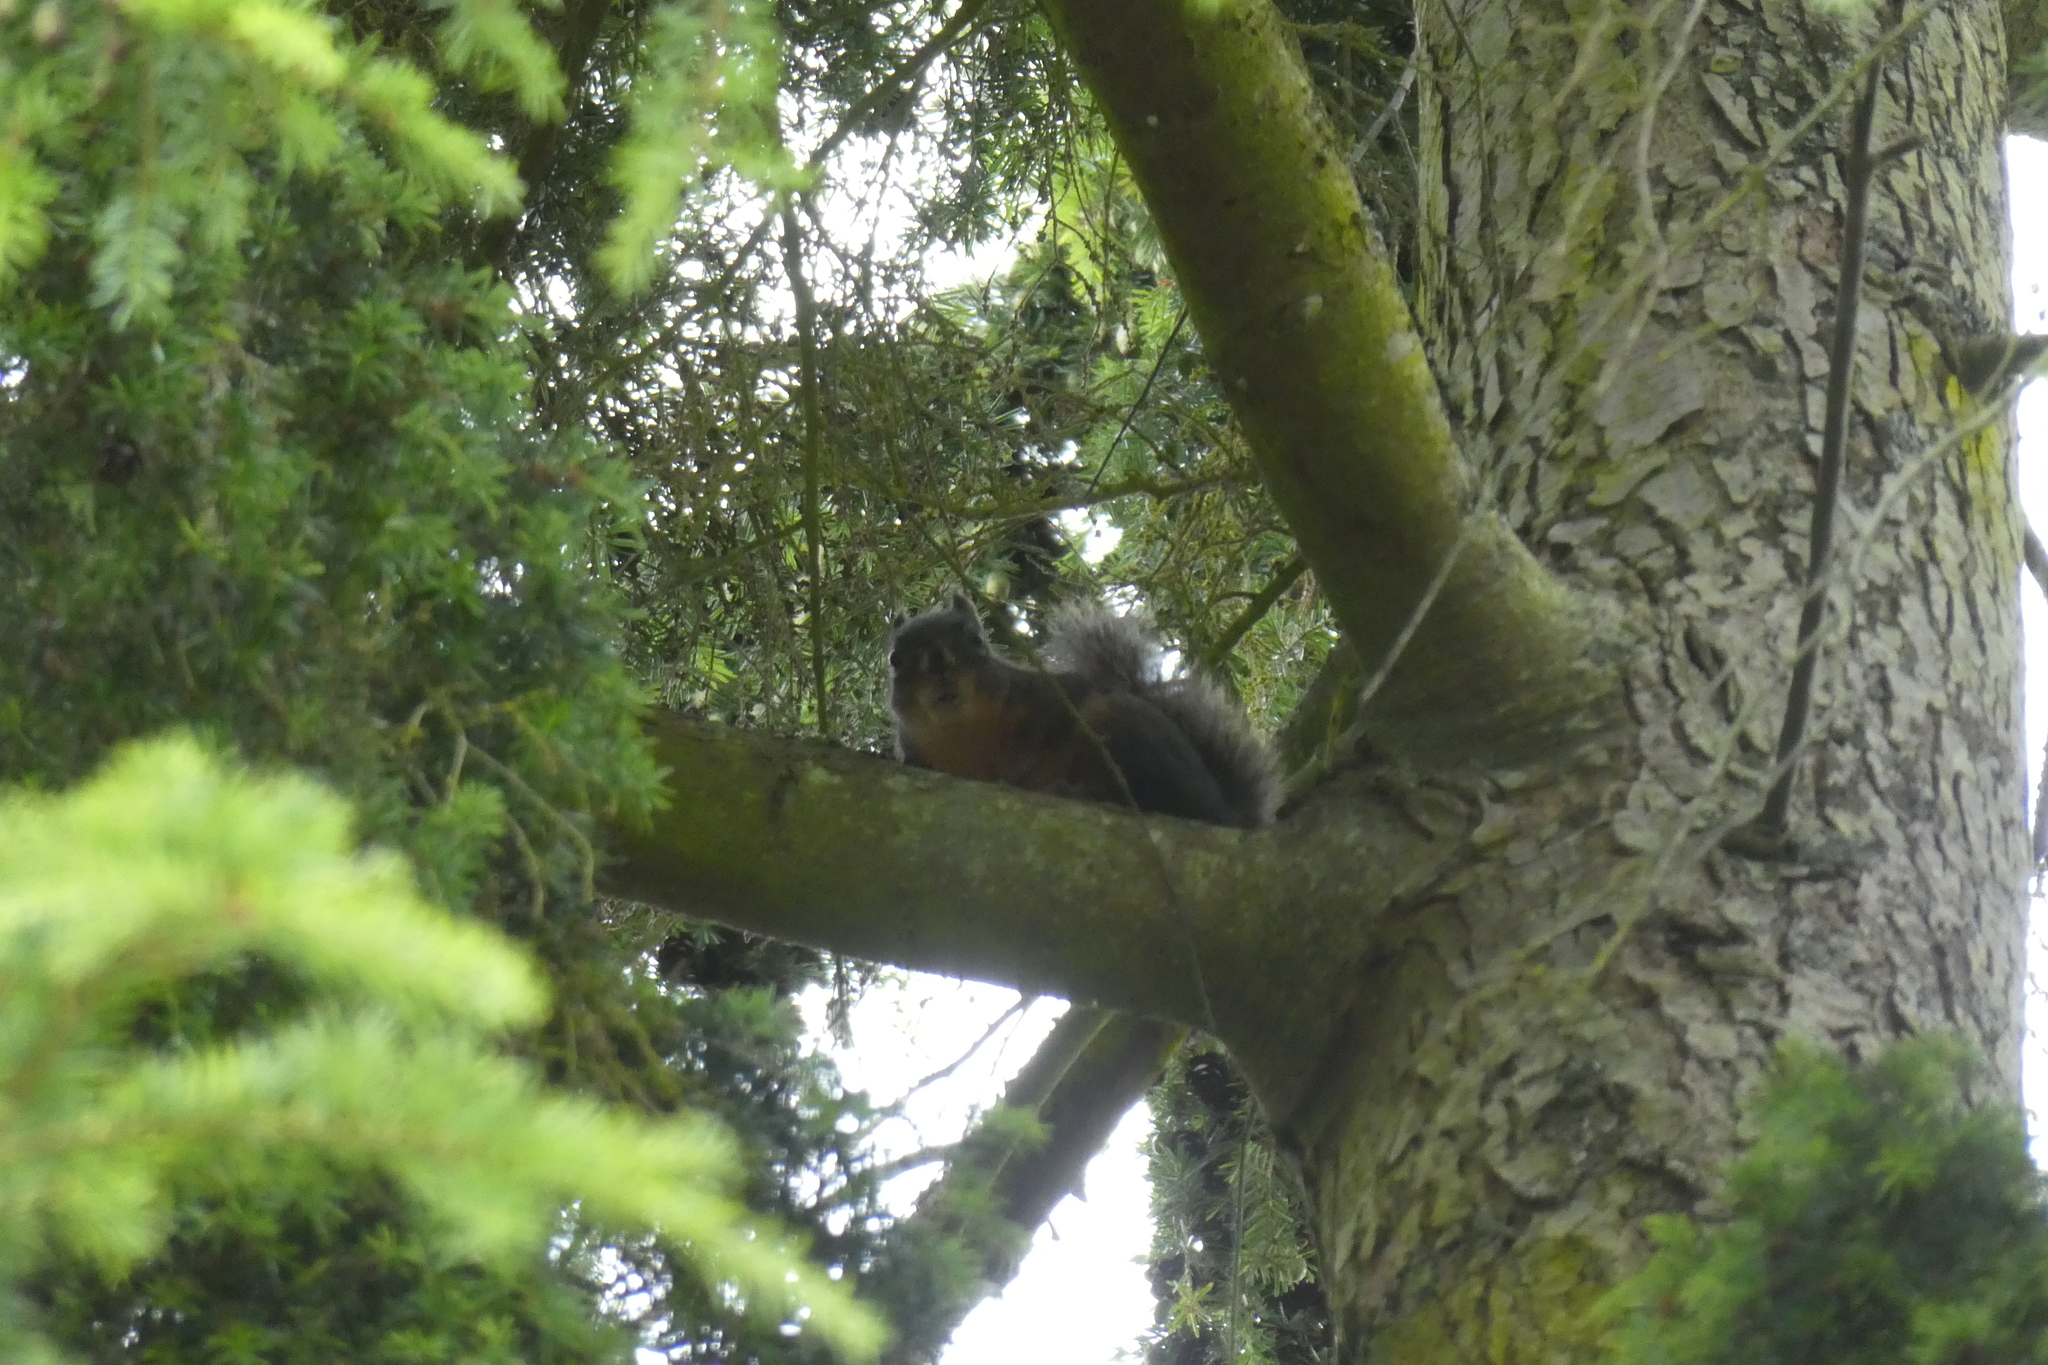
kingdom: Animalia
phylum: Chordata
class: Mammalia
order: Rodentia
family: Sciuridae
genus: Tamiasciurus
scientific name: Tamiasciurus douglasii
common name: Douglas's squirrel
